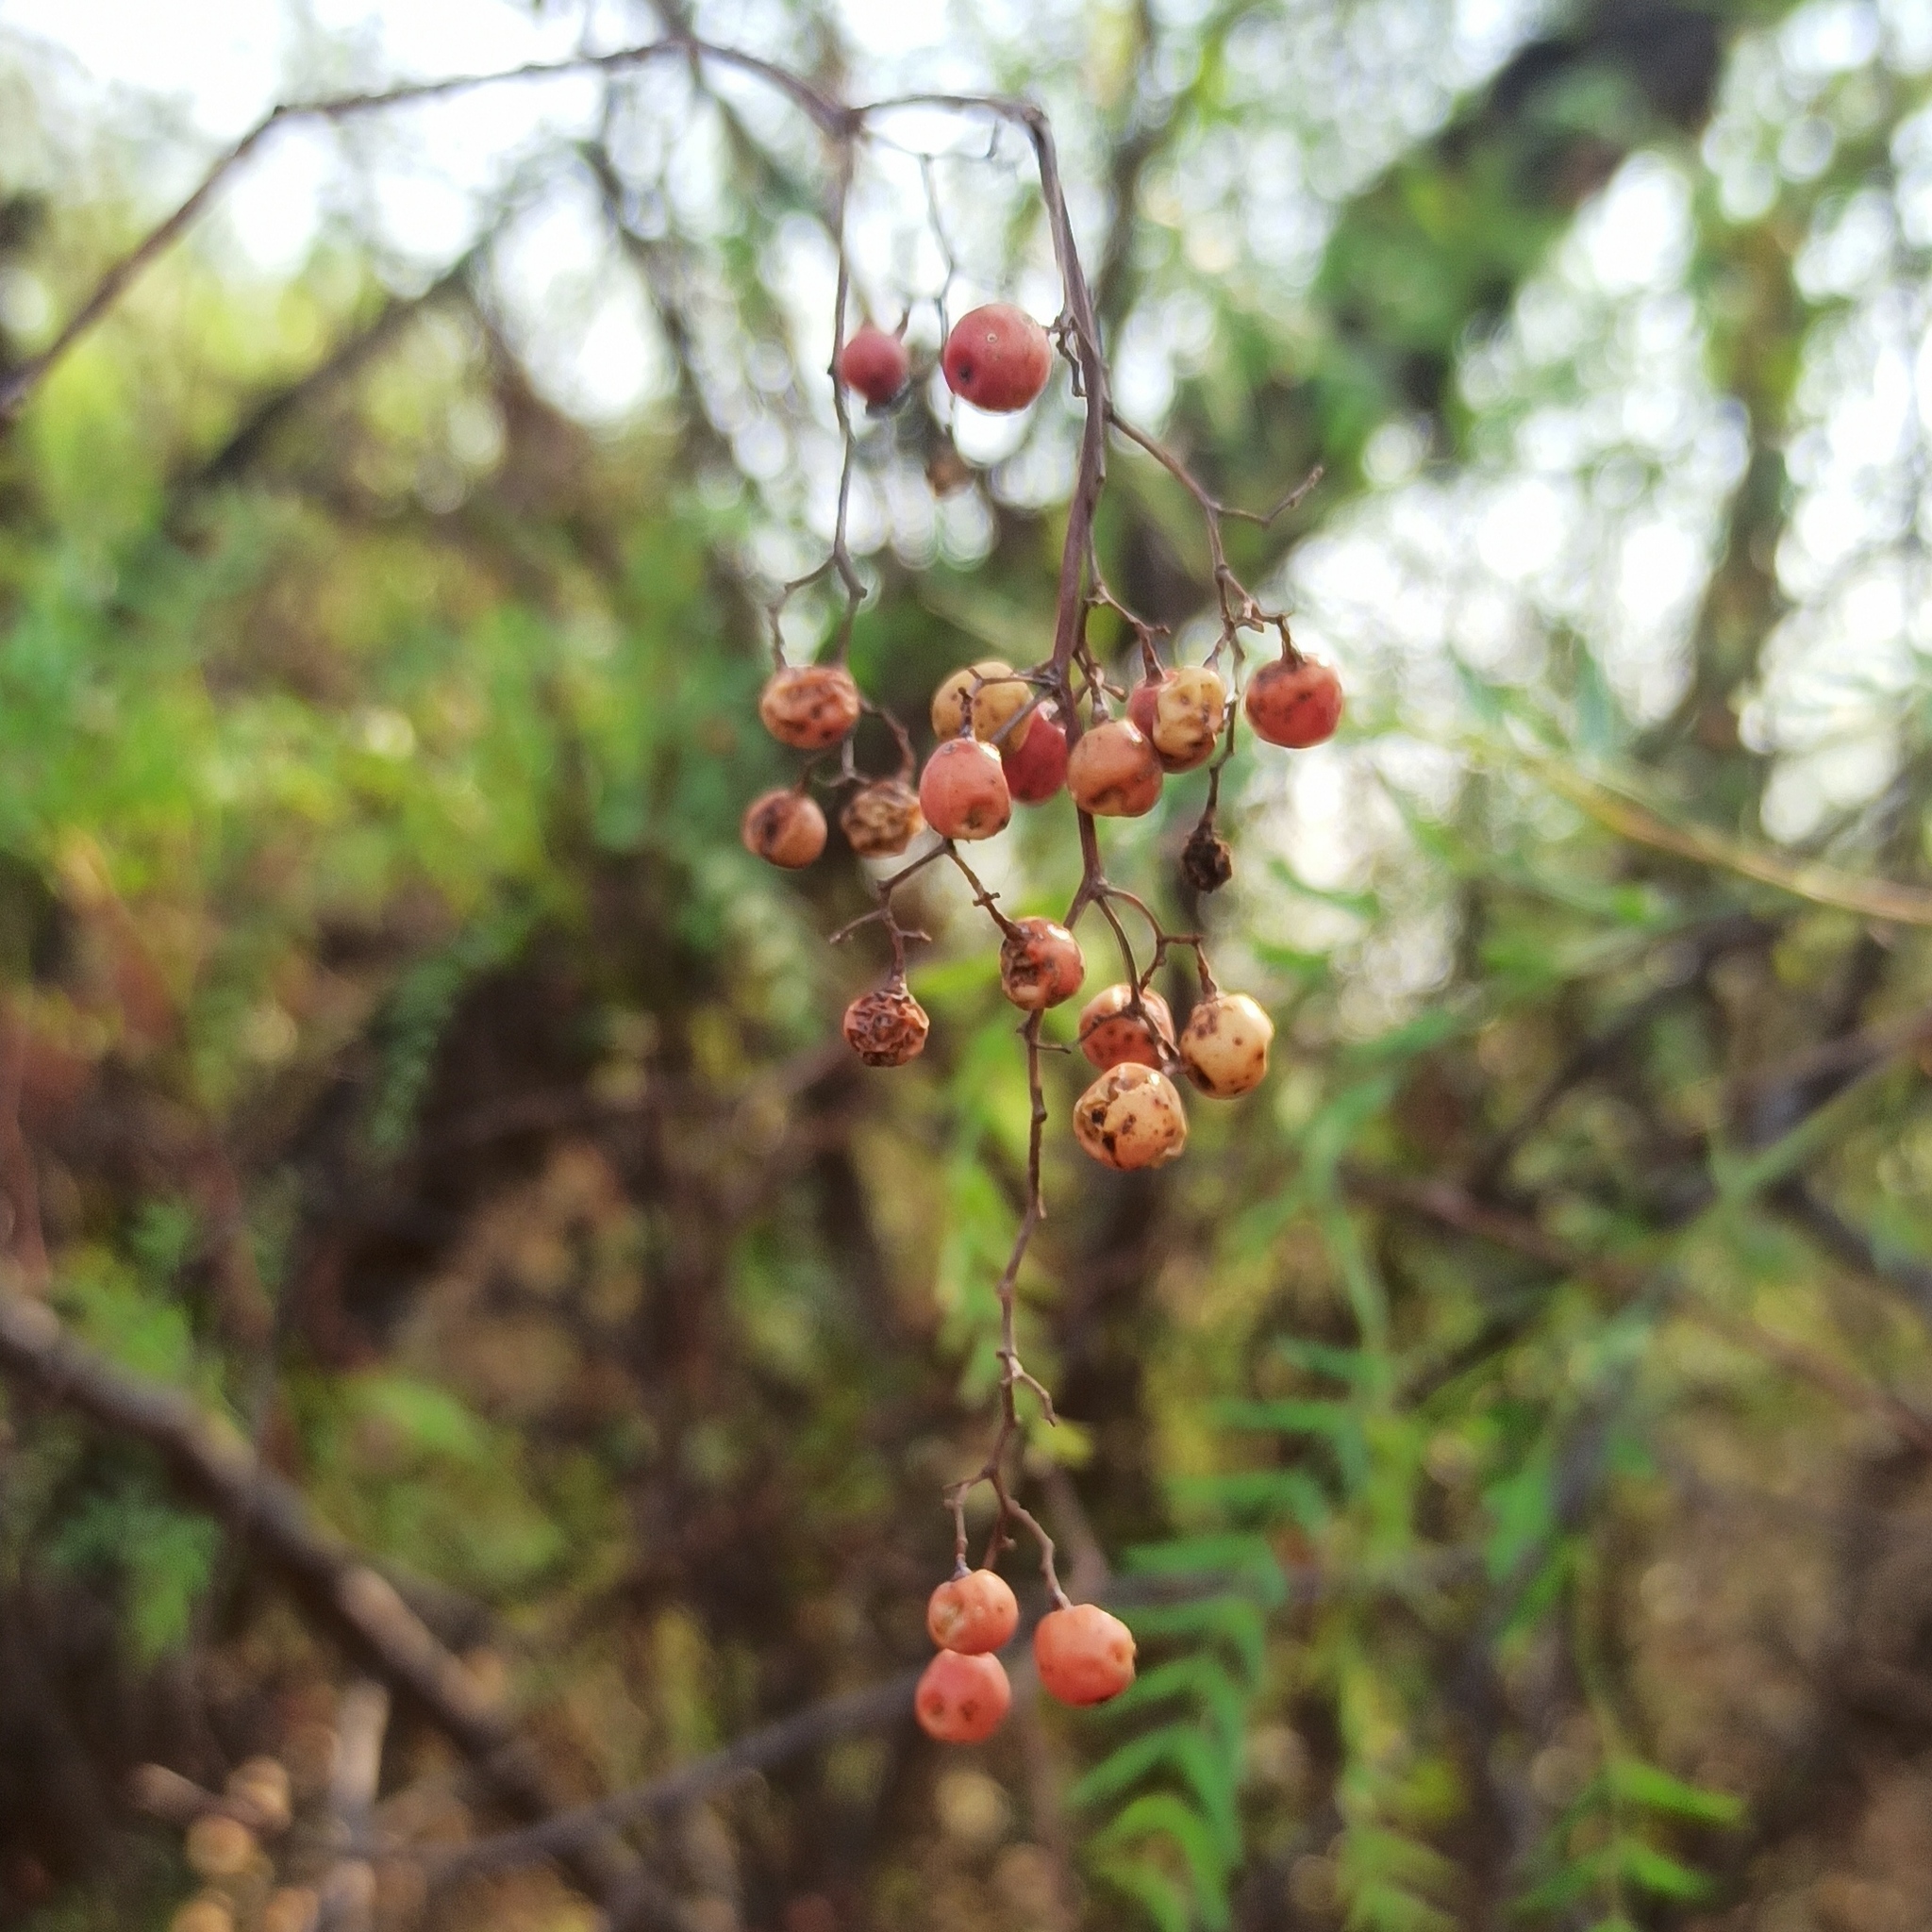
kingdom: Plantae
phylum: Tracheophyta
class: Magnoliopsida
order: Sapindales
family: Anacardiaceae
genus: Schinus
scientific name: Schinus molle
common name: Peruvian peppertree
